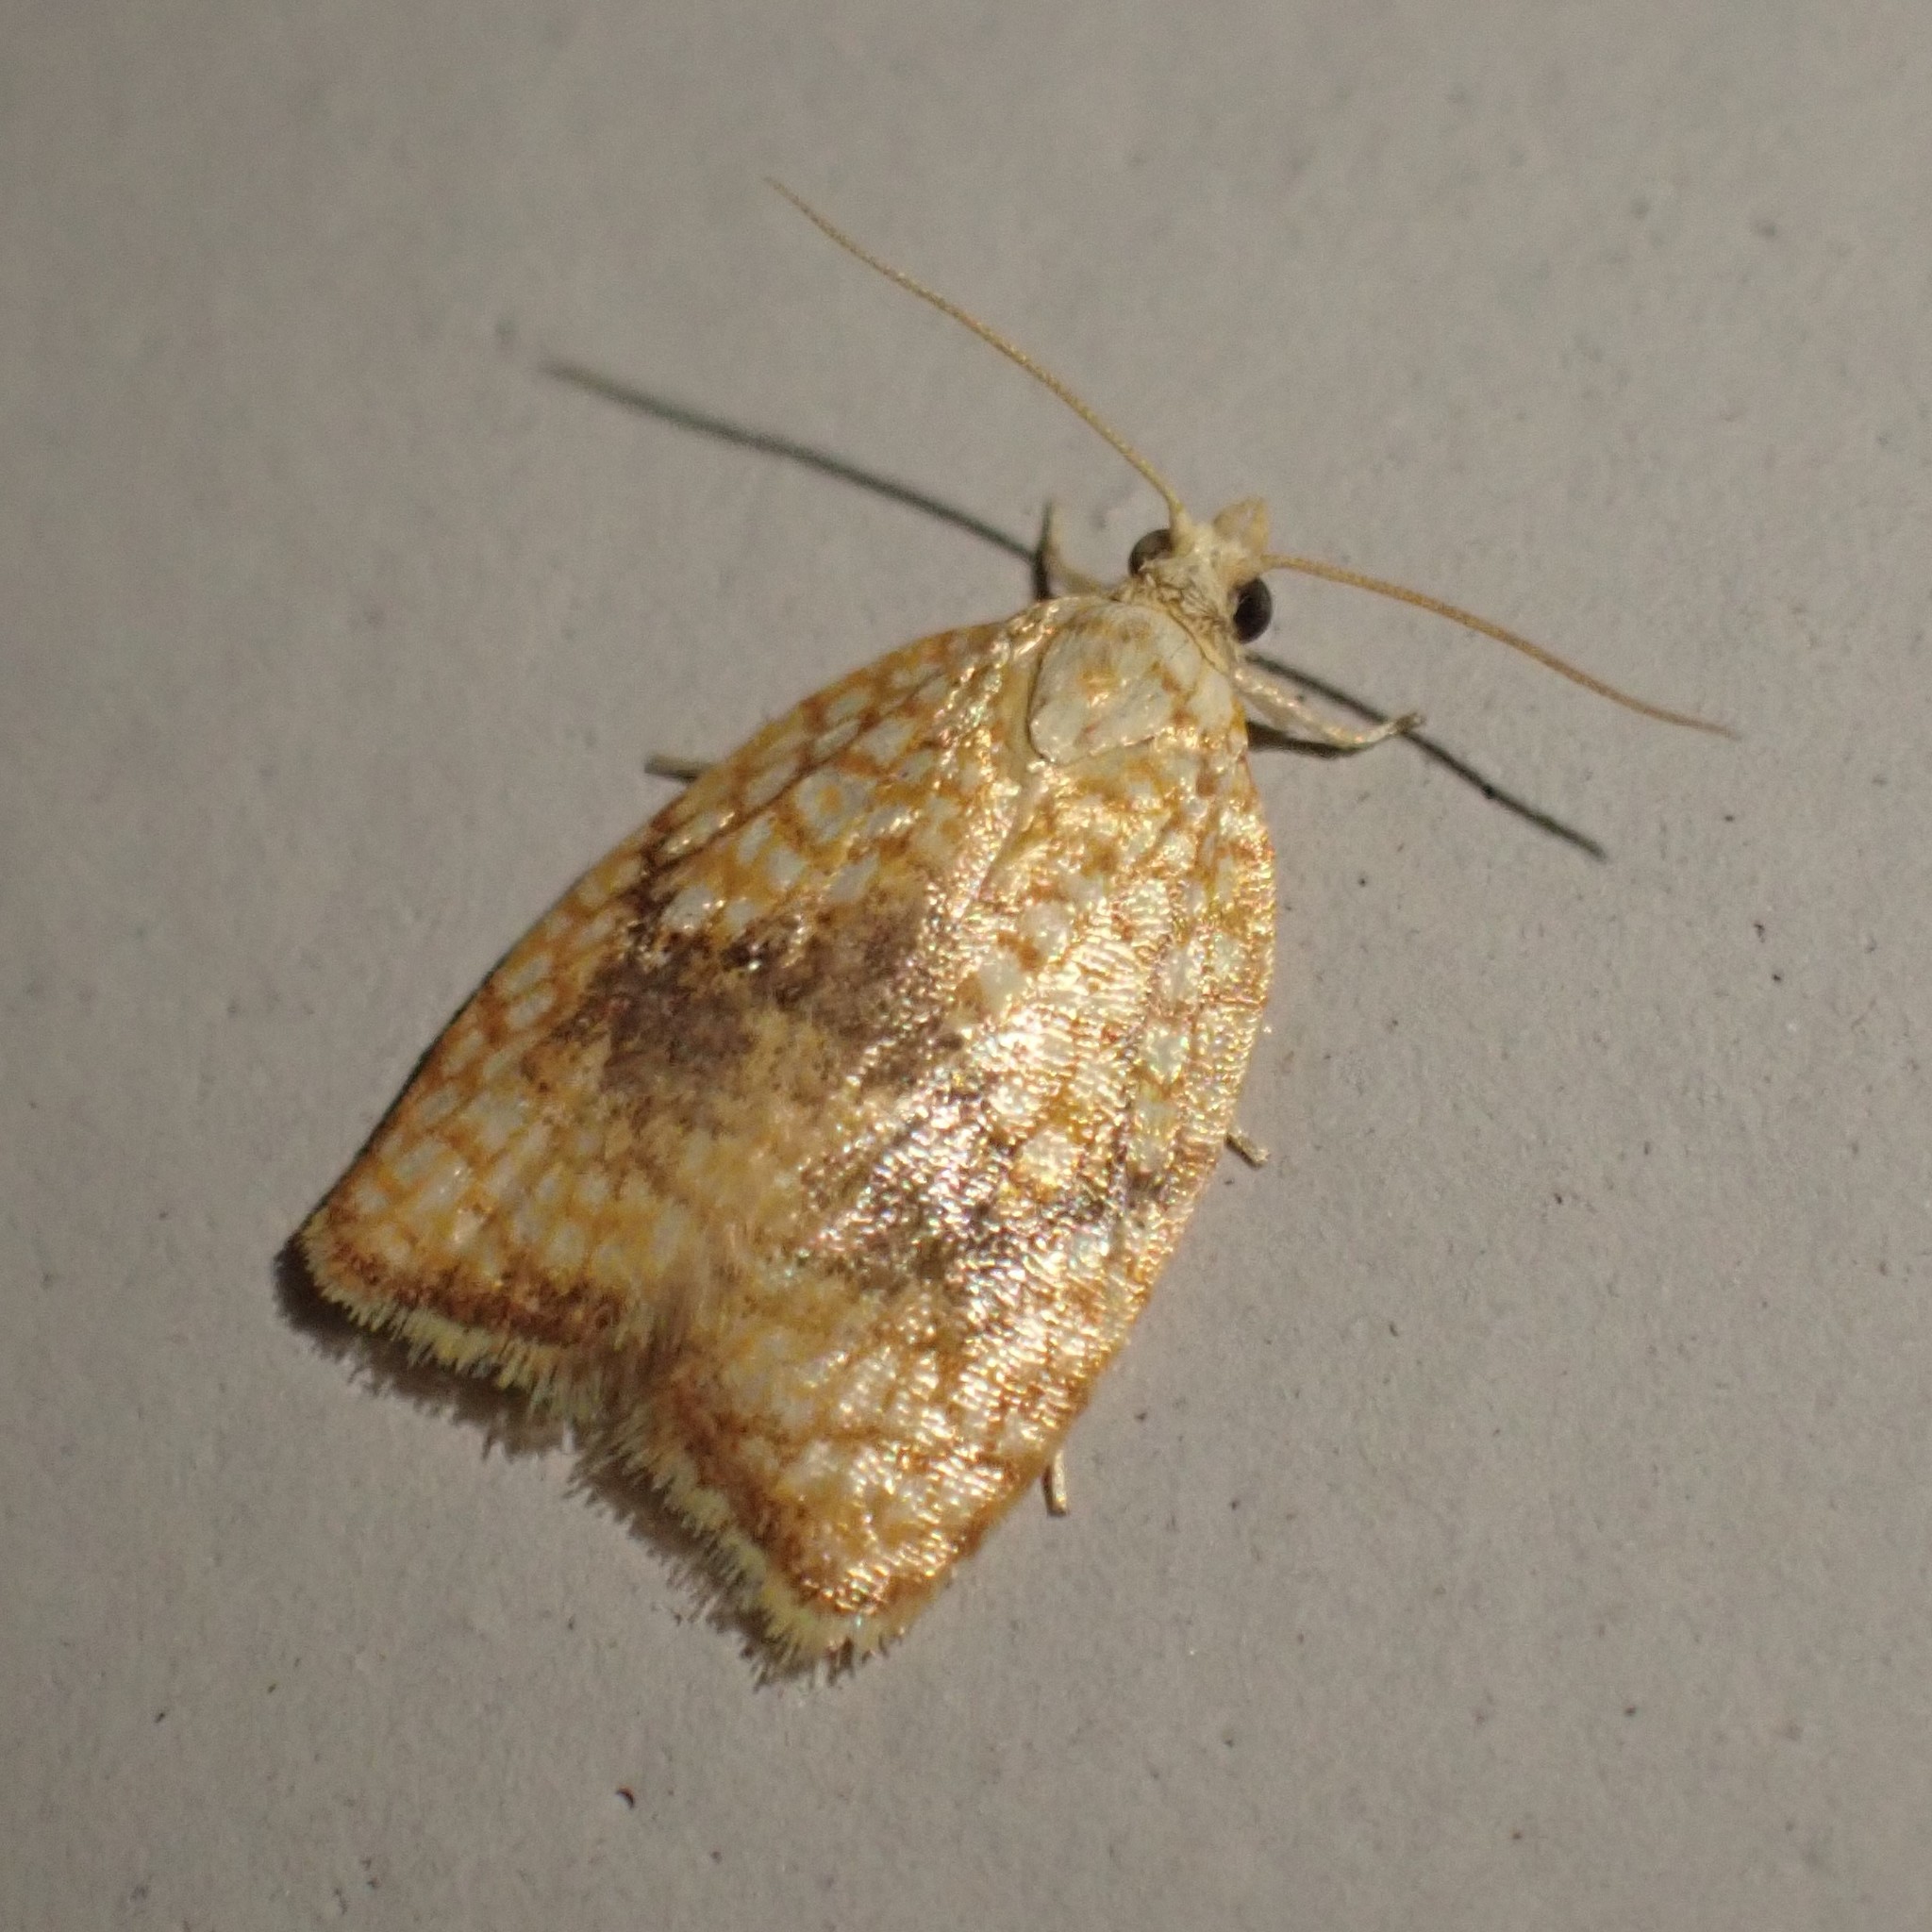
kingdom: Animalia
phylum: Arthropoda
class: Insecta
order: Lepidoptera
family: Tortricidae
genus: Acleris
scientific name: Acleris forsskaleana
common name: Maple button
